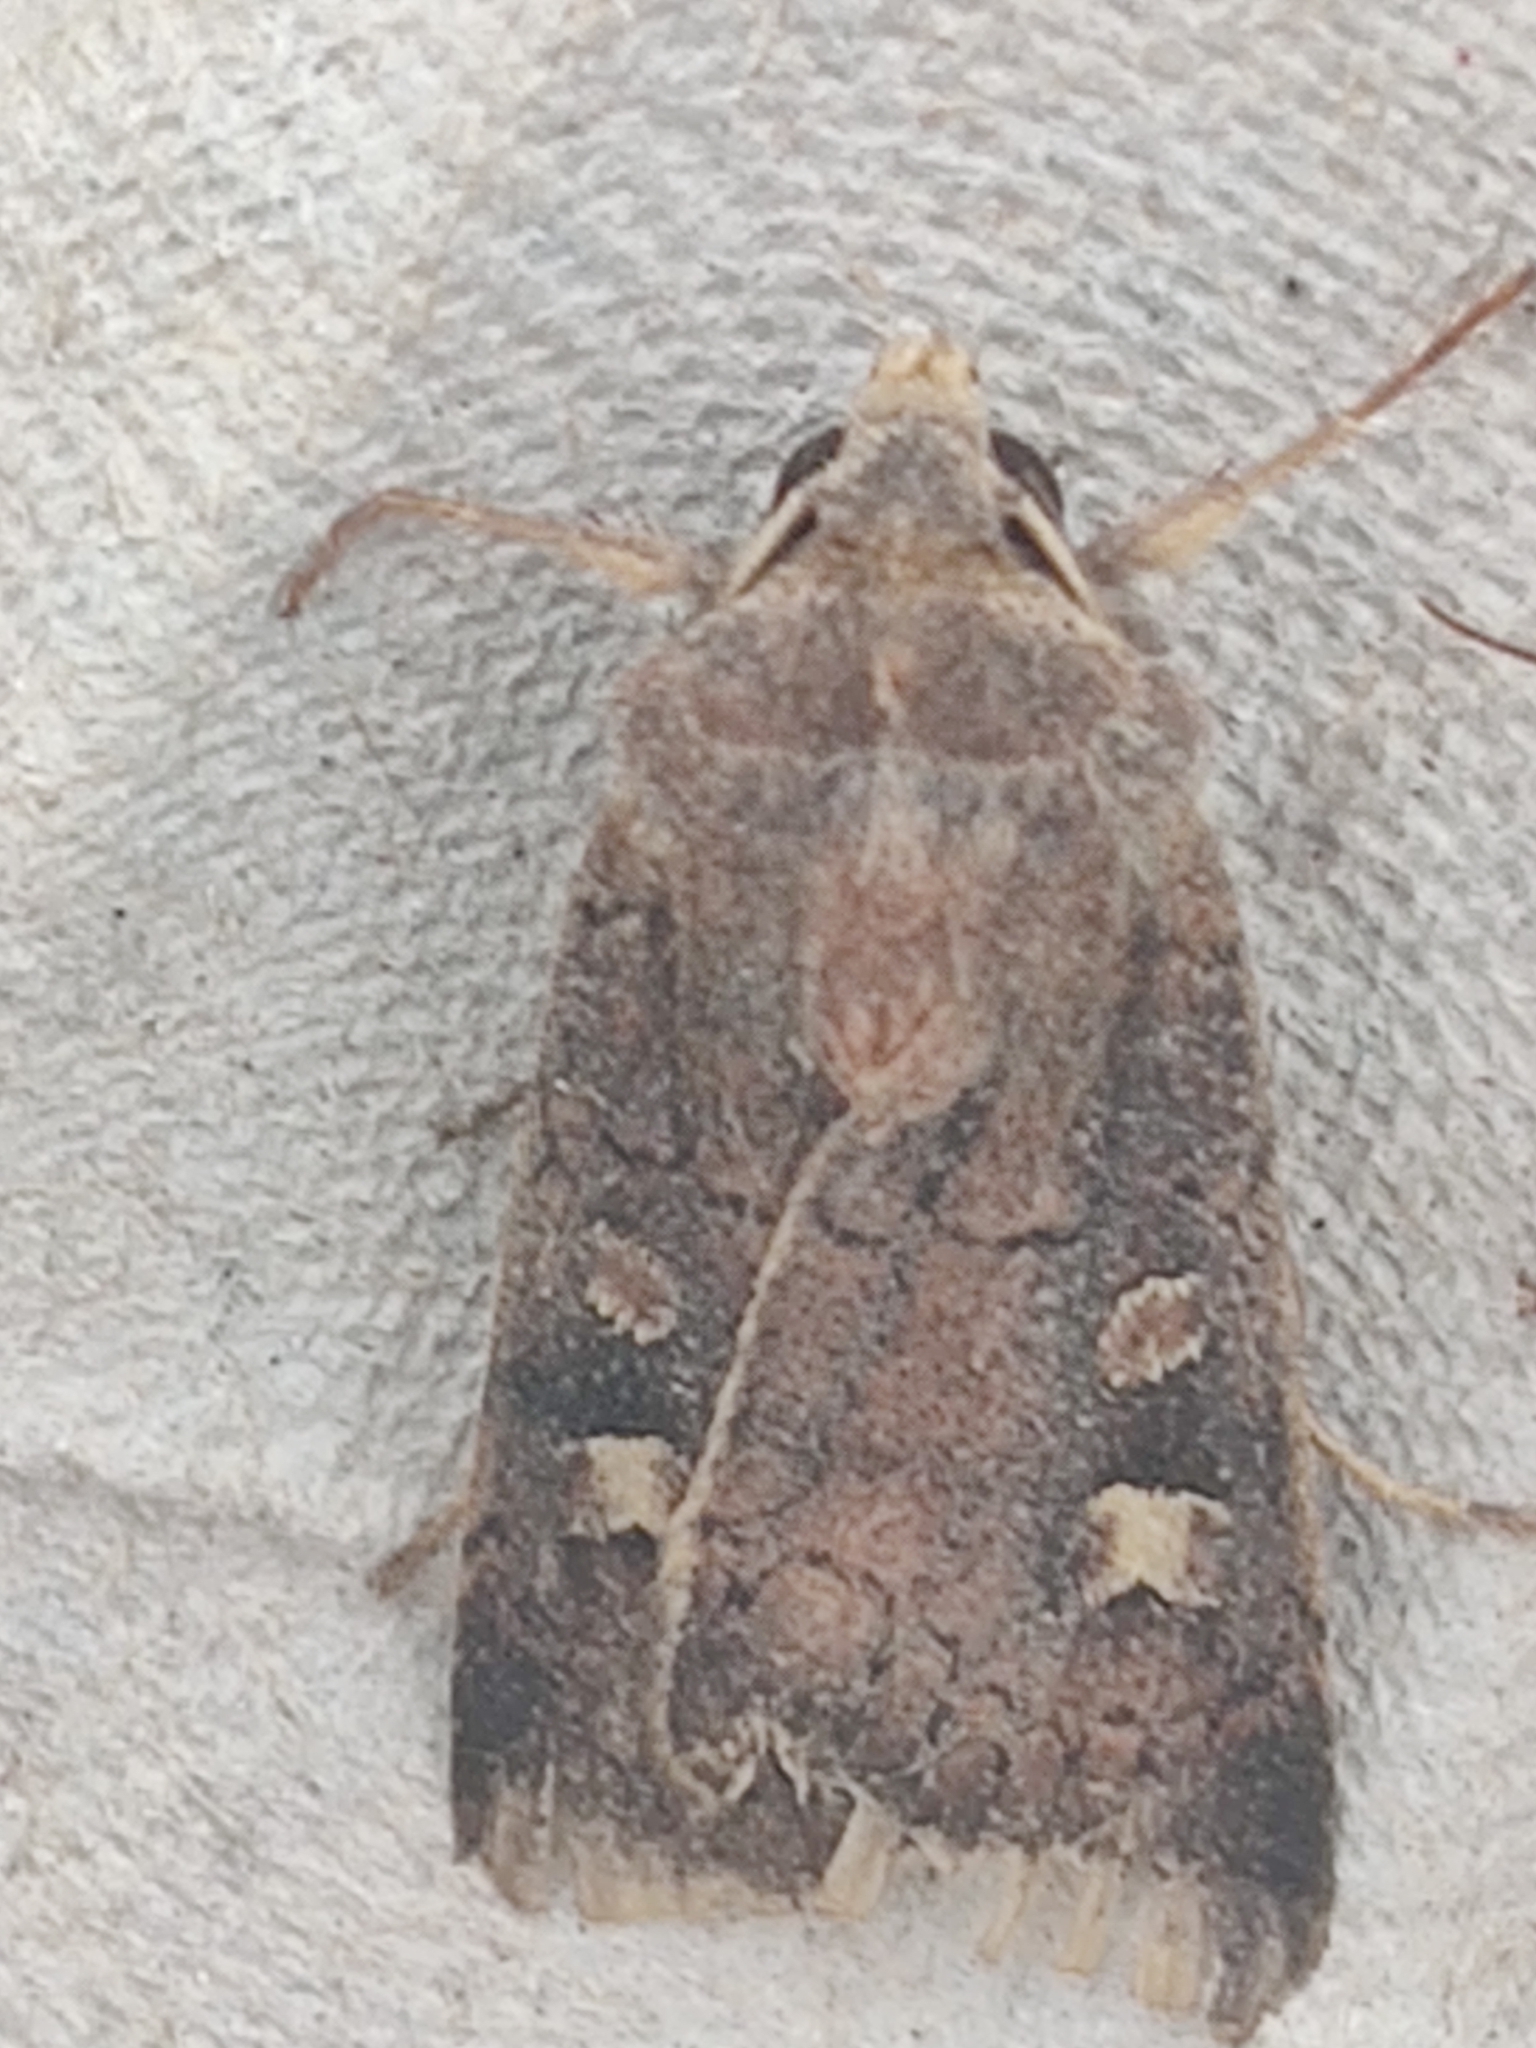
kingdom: Animalia
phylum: Arthropoda
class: Insecta
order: Lepidoptera
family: Noctuidae
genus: Xestia
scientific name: Xestia xanthographa
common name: Square-spot rustic
